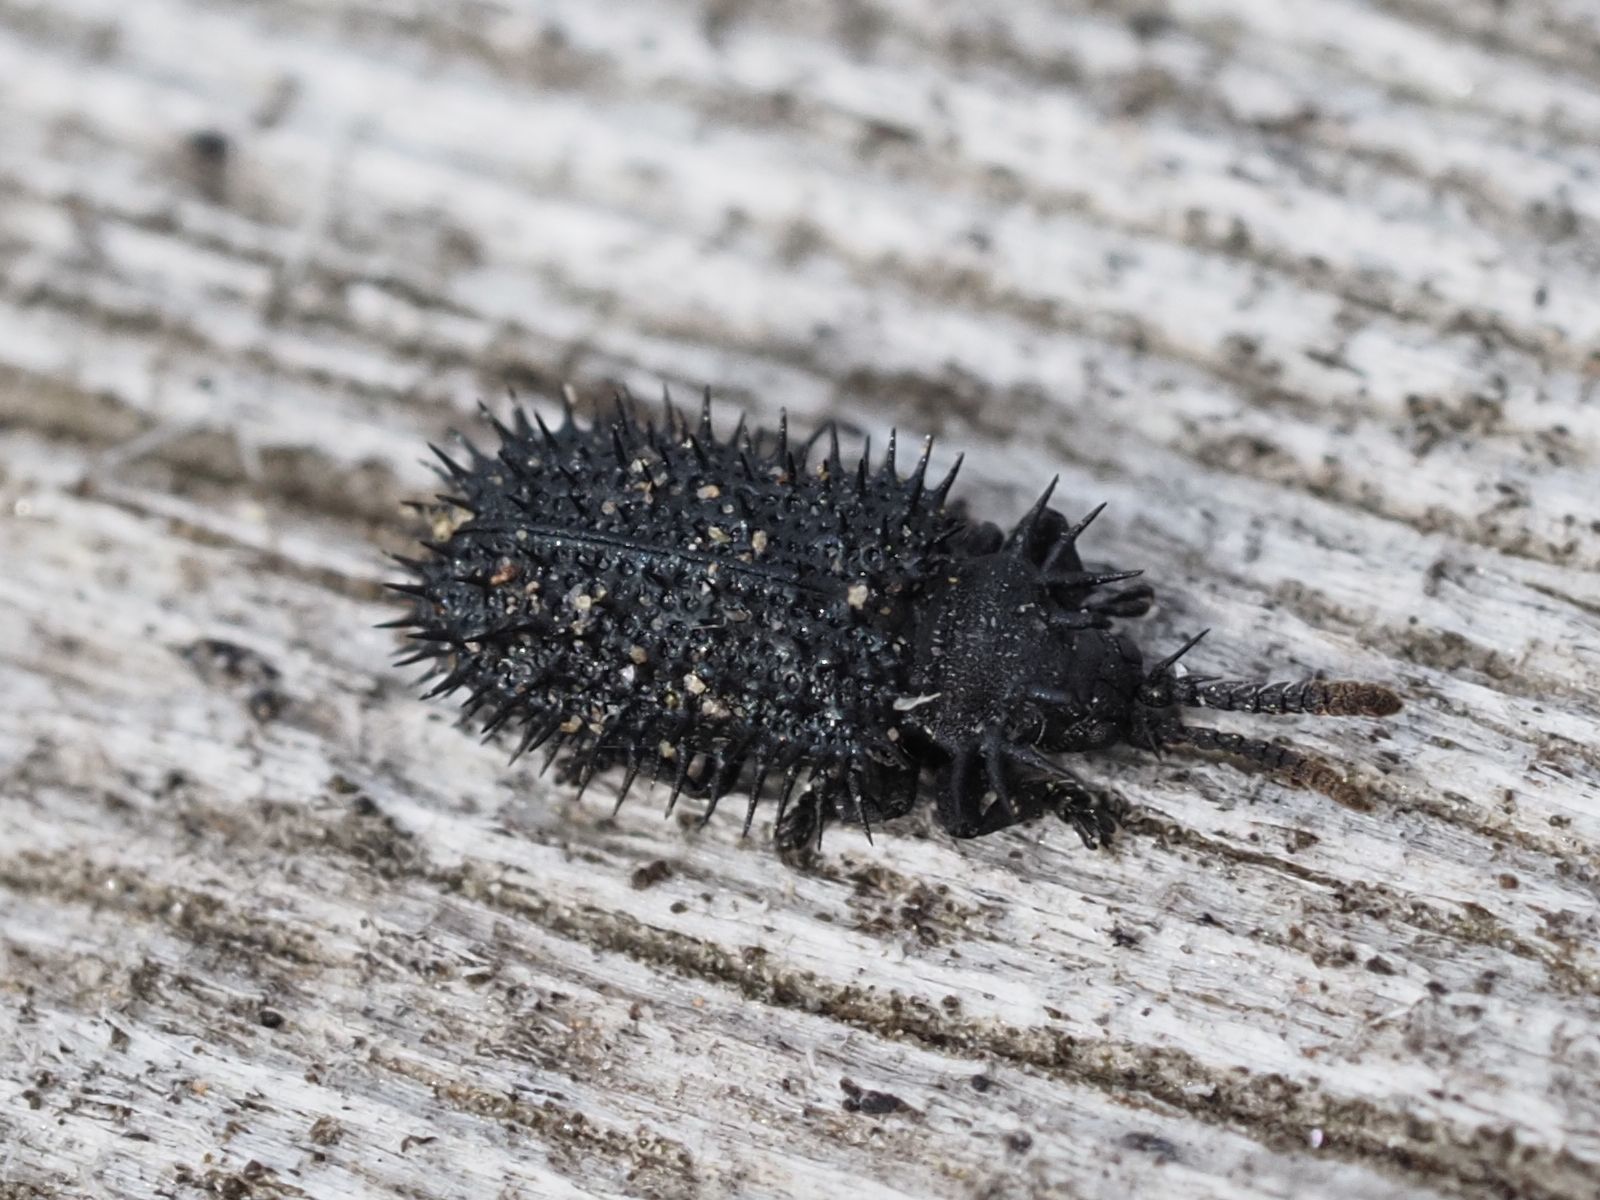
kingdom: Animalia
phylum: Arthropoda
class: Insecta
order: Coleoptera
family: Chrysomelidae
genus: Hispa
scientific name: Hispa atra
